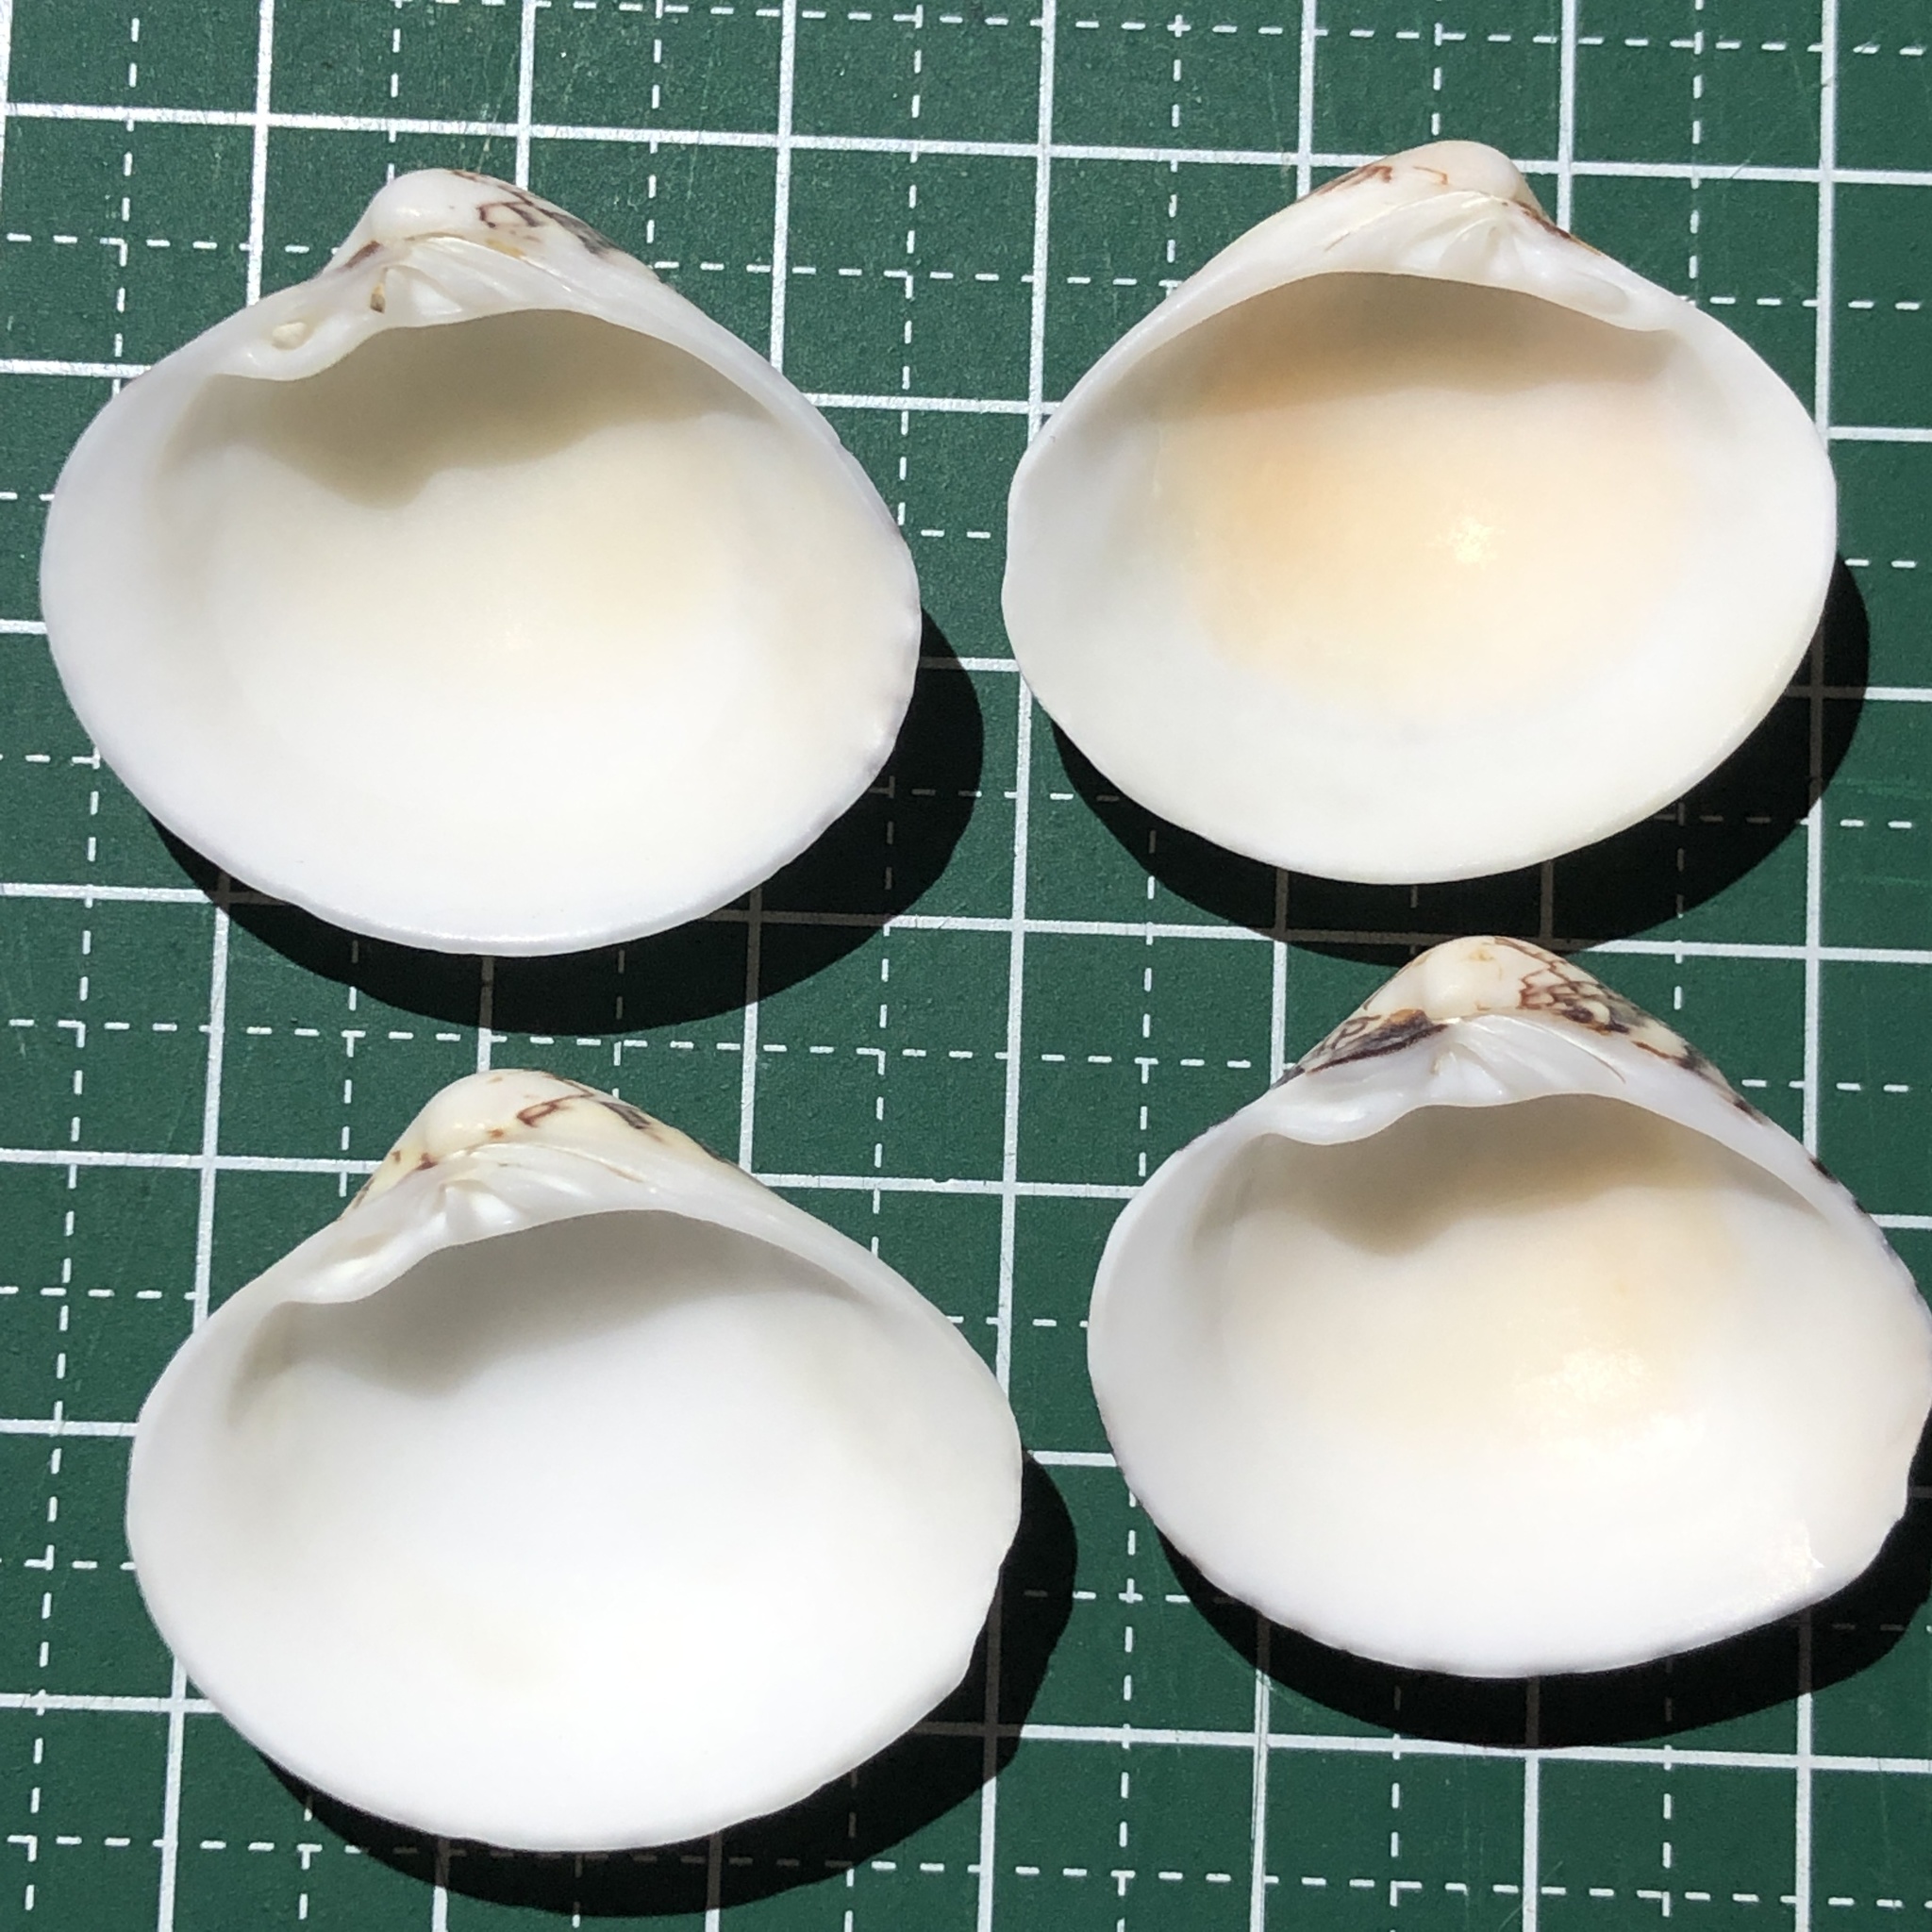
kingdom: Animalia
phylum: Mollusca
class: Bivalvia
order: Venerida
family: Veneridae
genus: Lioconcha
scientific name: Lioconcha fastigiata
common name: Clam
